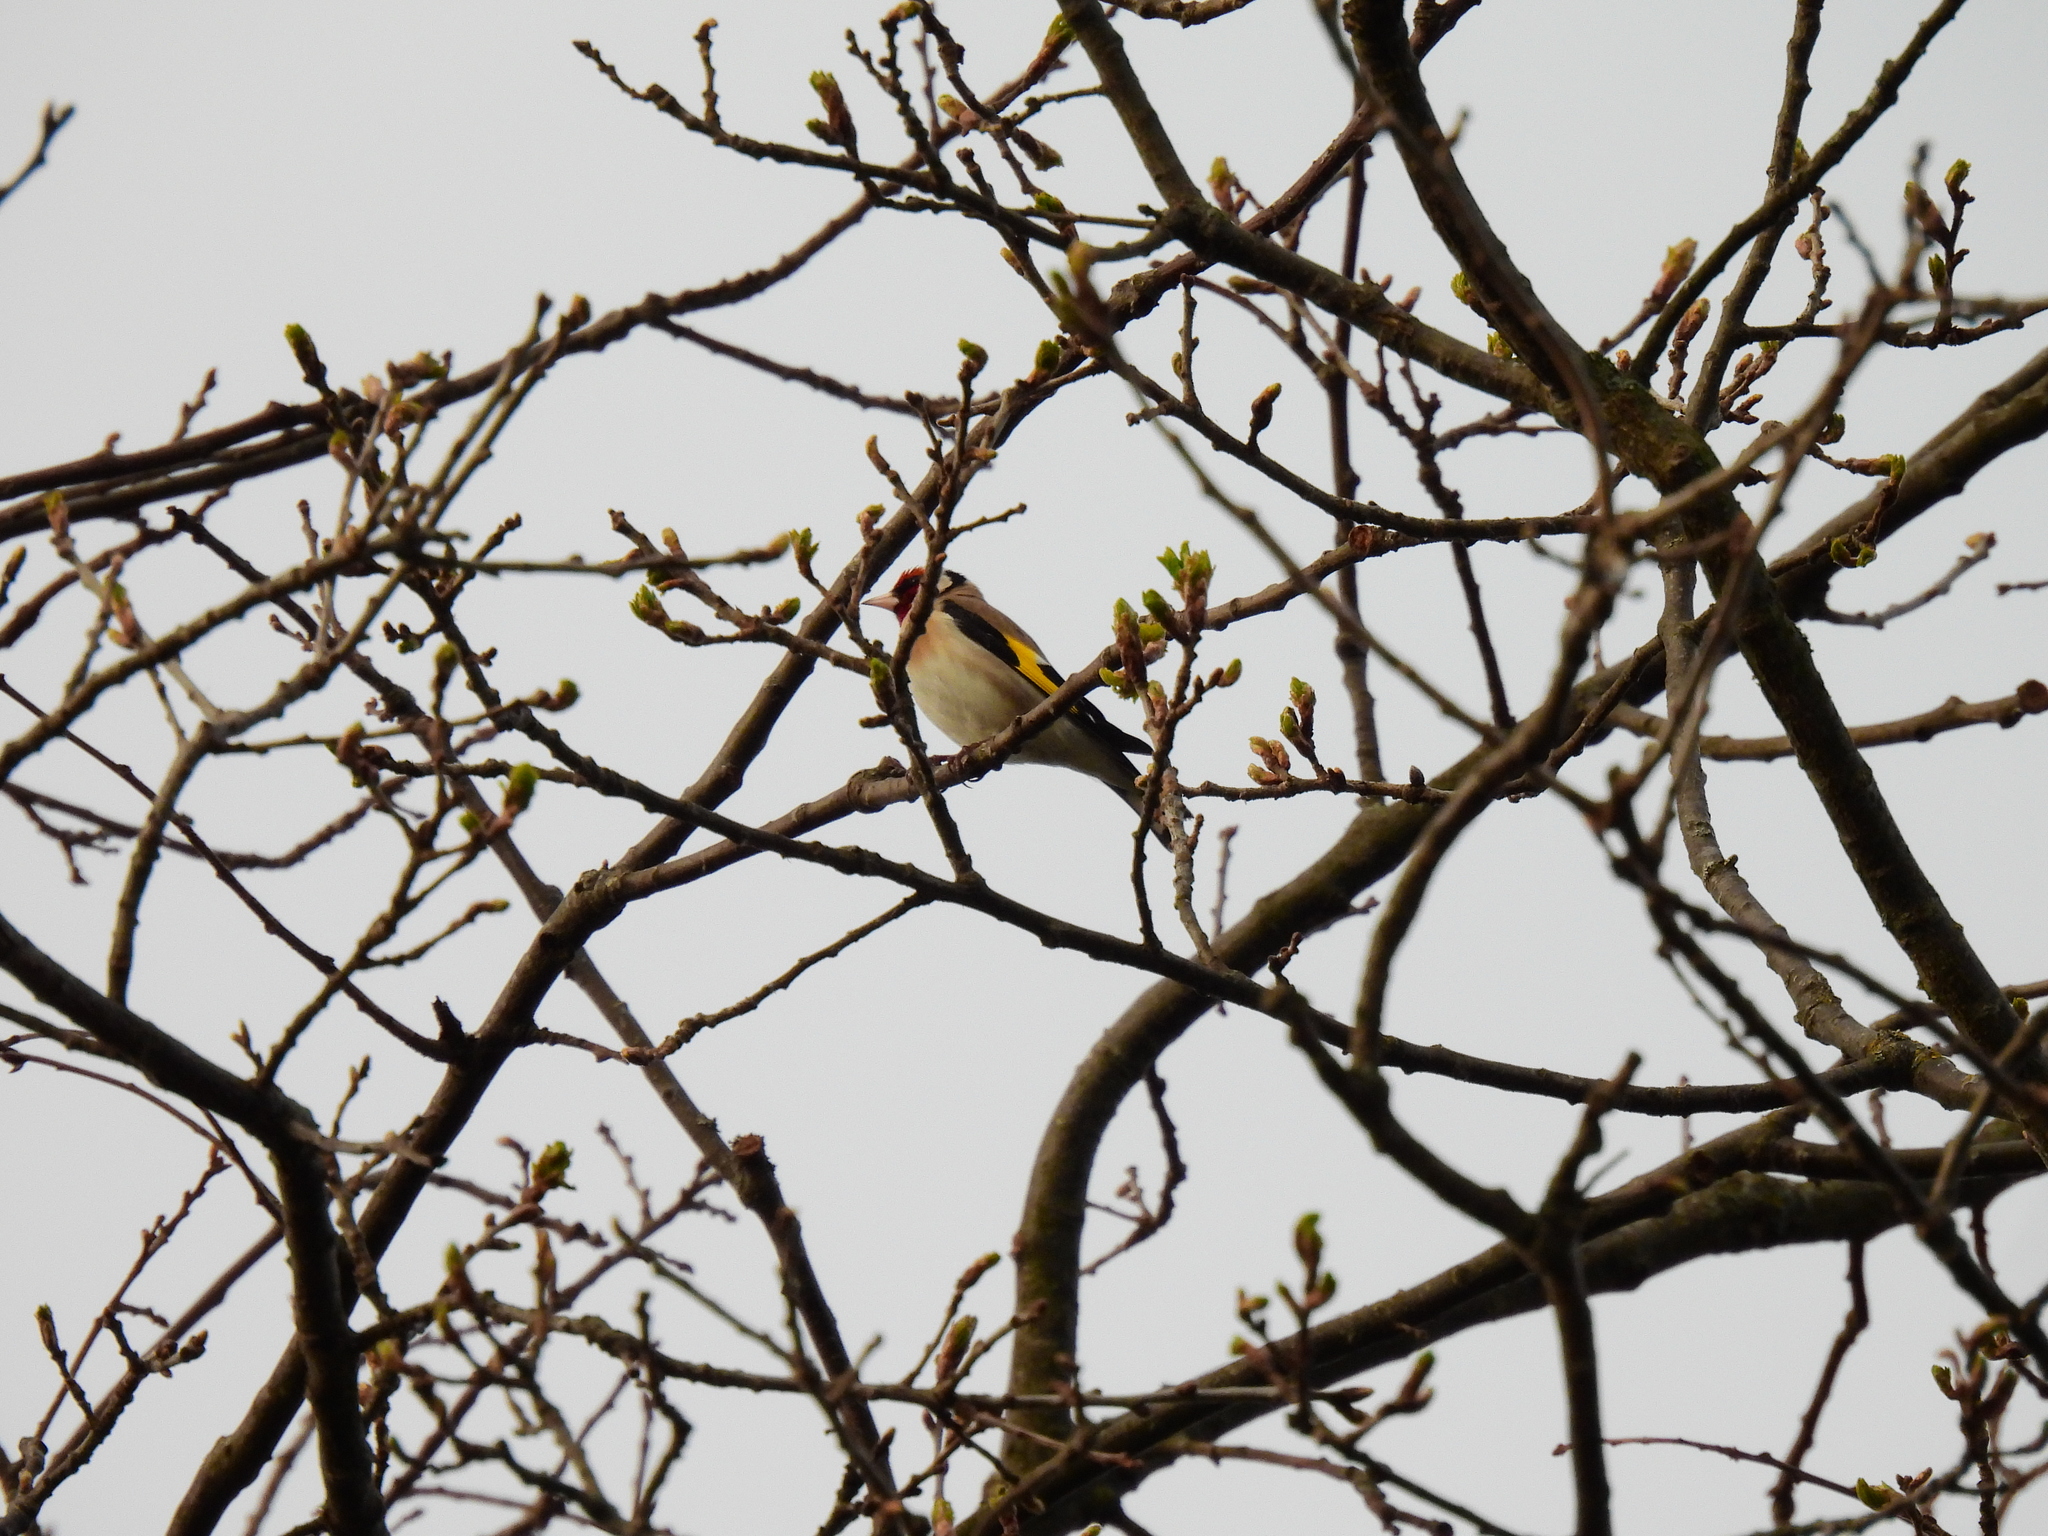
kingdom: Animalia
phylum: Chordata
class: Aves
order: Passeriformes
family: Fringillidae
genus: Carduelis
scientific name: Carduelis carduelis
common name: European goldfinch
